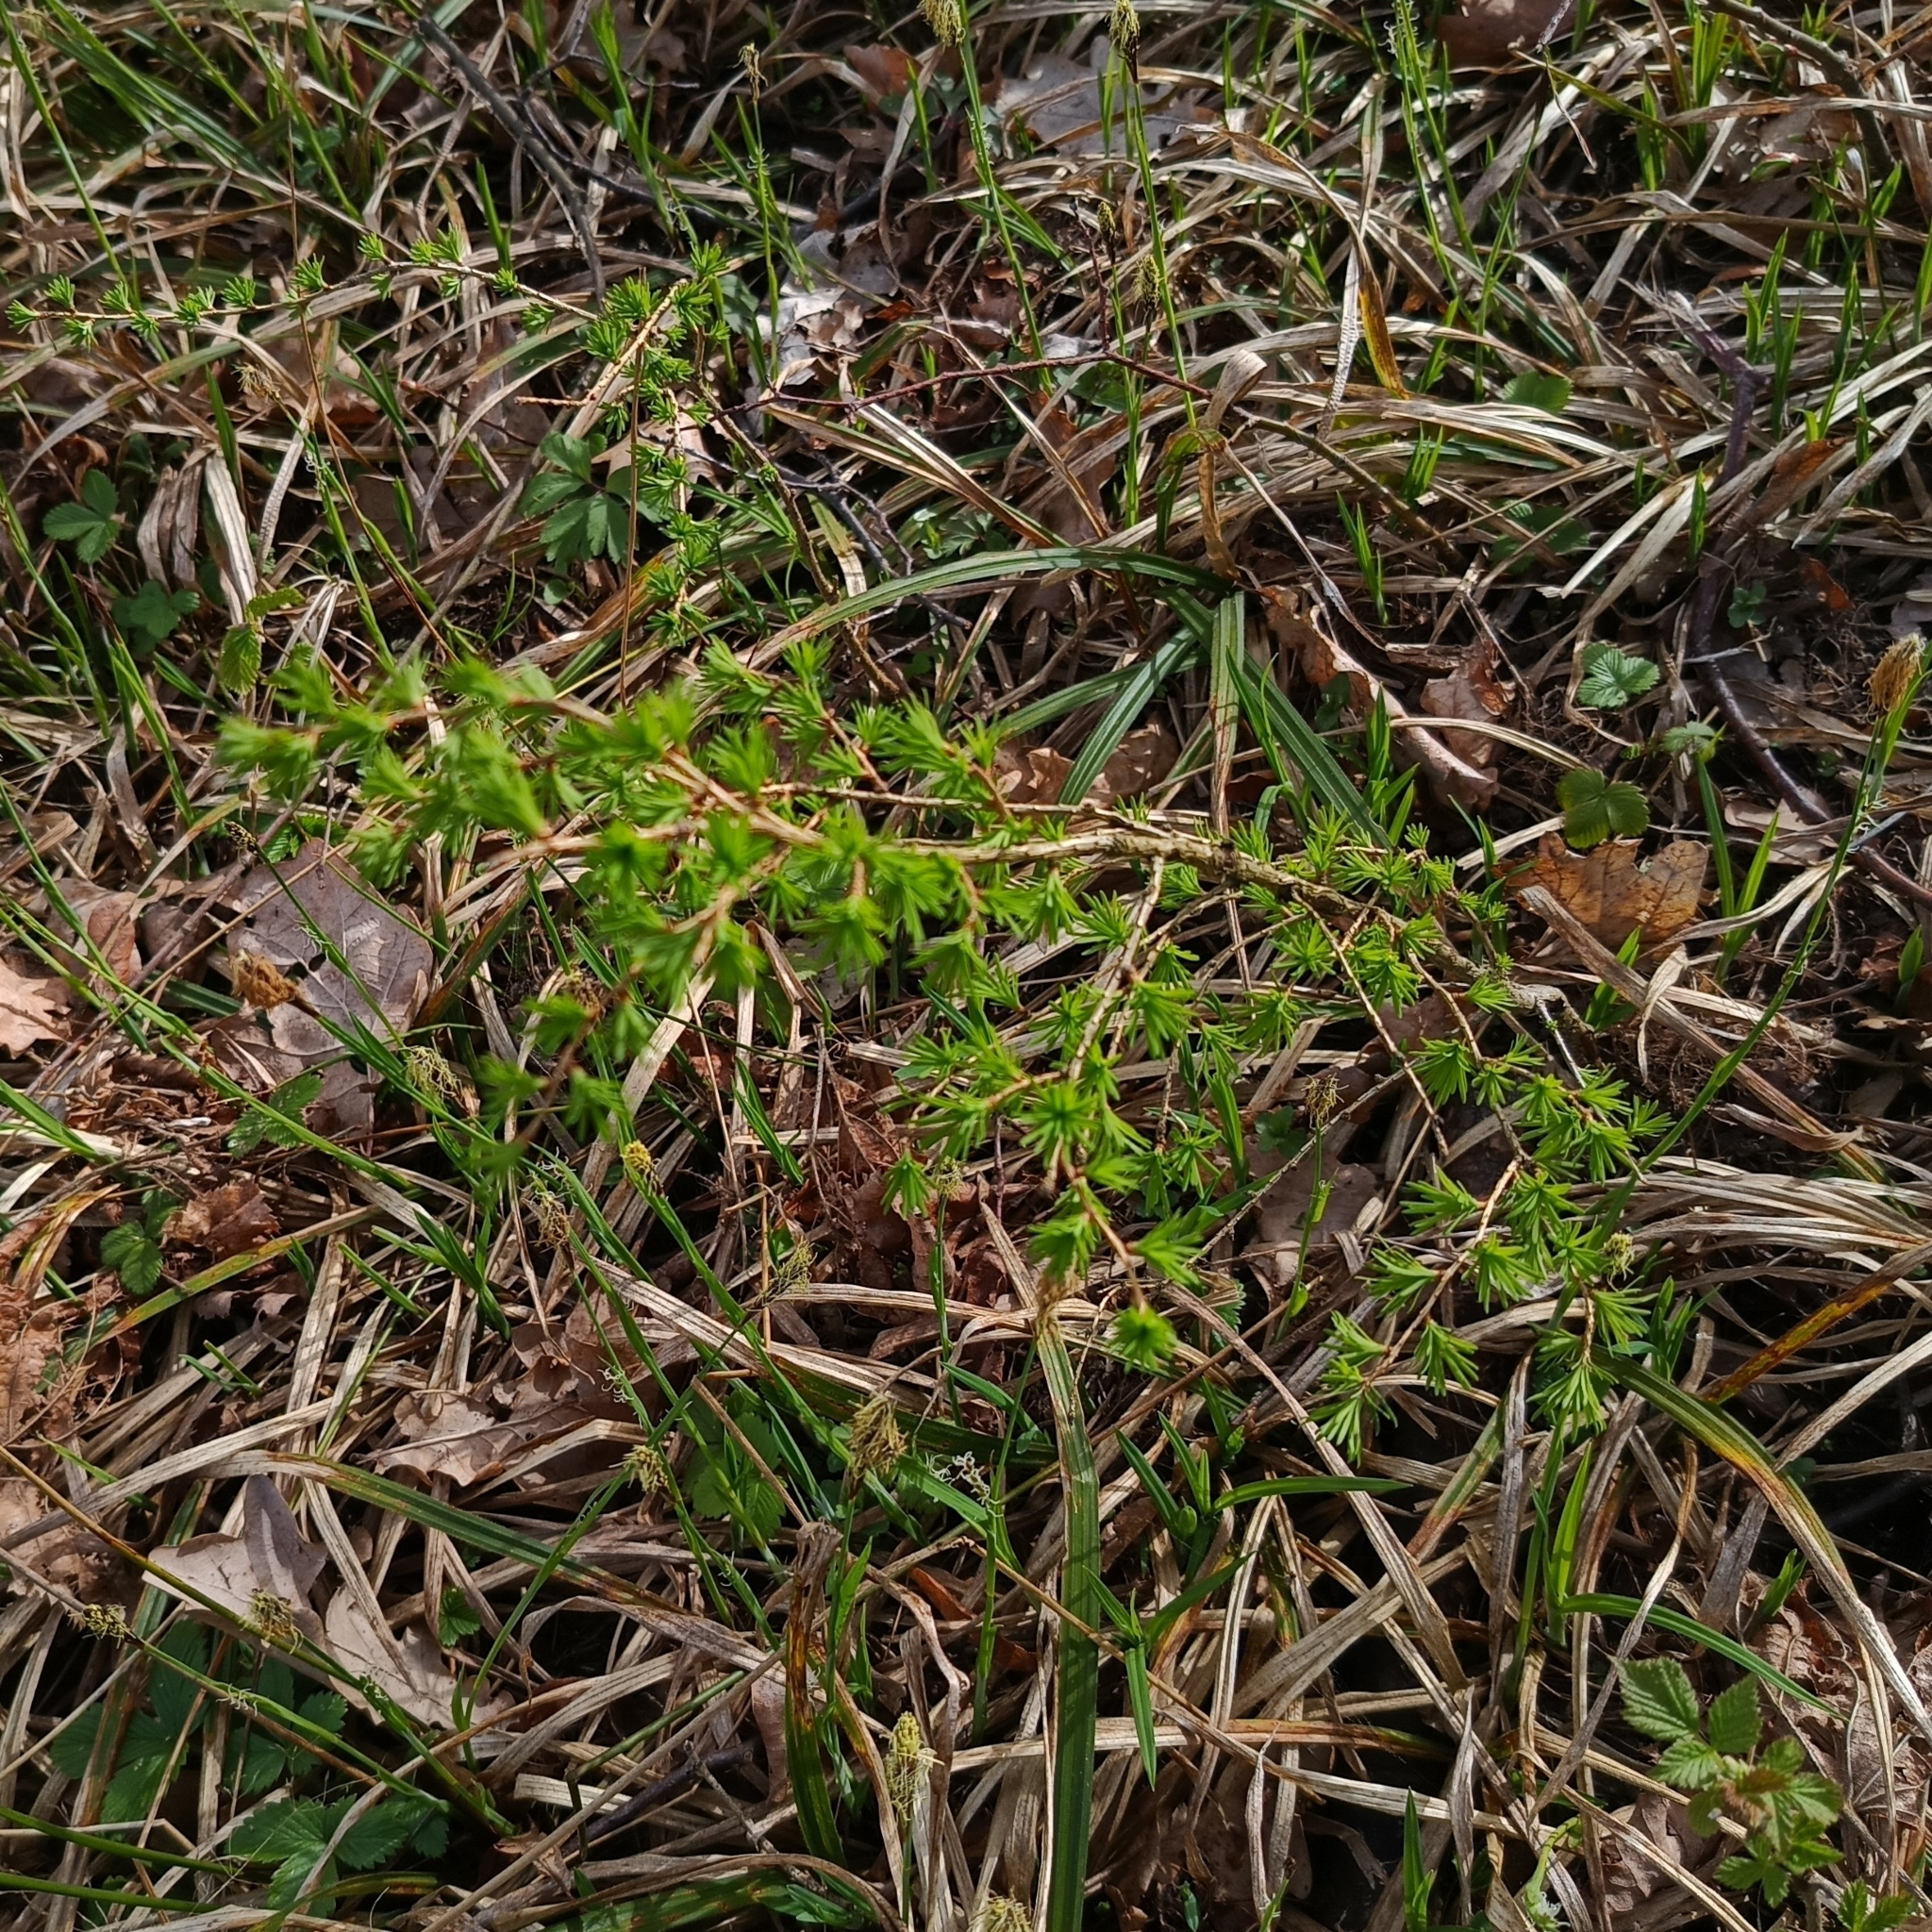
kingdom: Plantae
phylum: Tracheophyta
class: Pinopsida
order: Pinales
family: Pinaceae
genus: Larix
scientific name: Larix decidua
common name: European larch
